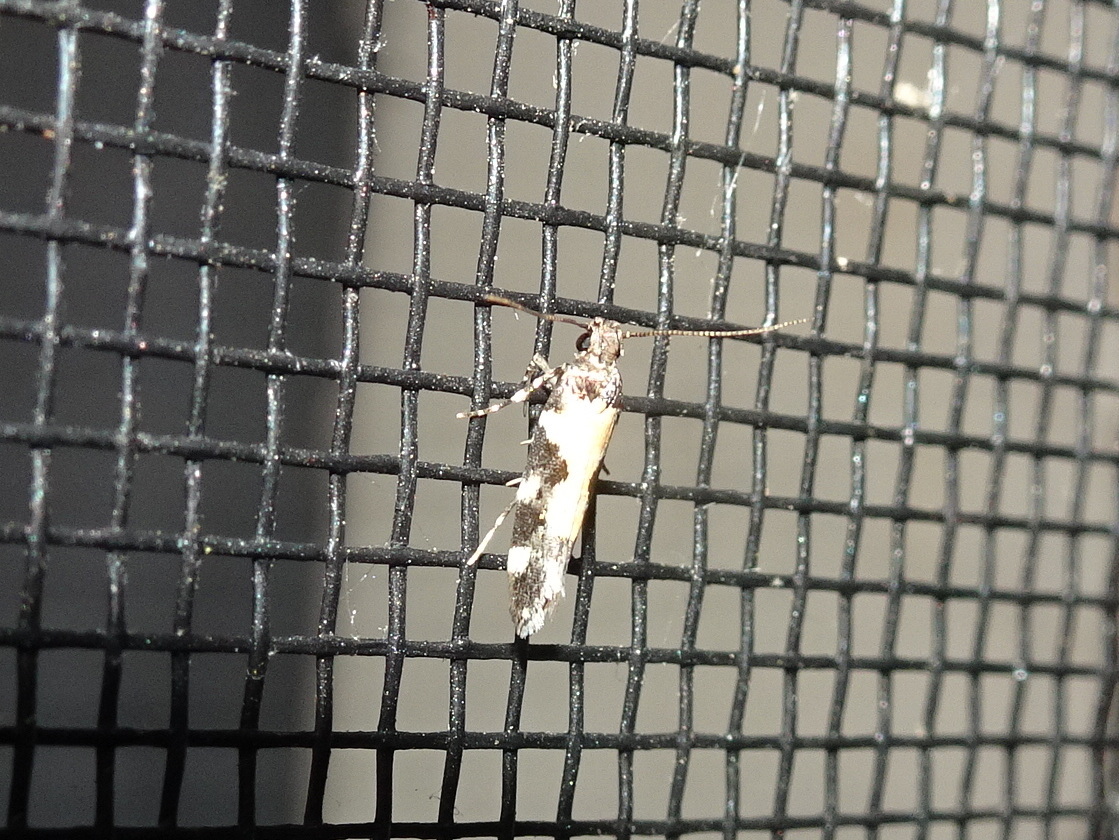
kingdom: Animalia
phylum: Arthropoda
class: Insecta
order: Lepidoptera
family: Gelechiidae
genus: Stegasta
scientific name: Stegasta bosqueella
